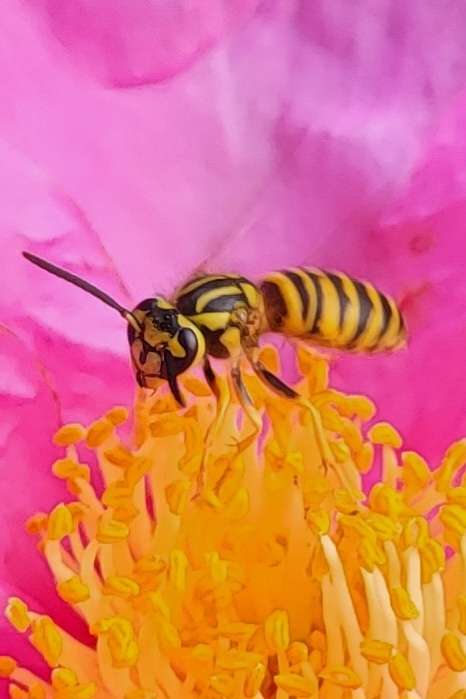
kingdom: Animalia
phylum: Arthropoda
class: Insecta
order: Hymenoptera
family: Vespidae
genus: Vespula
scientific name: Vespula squamosa
